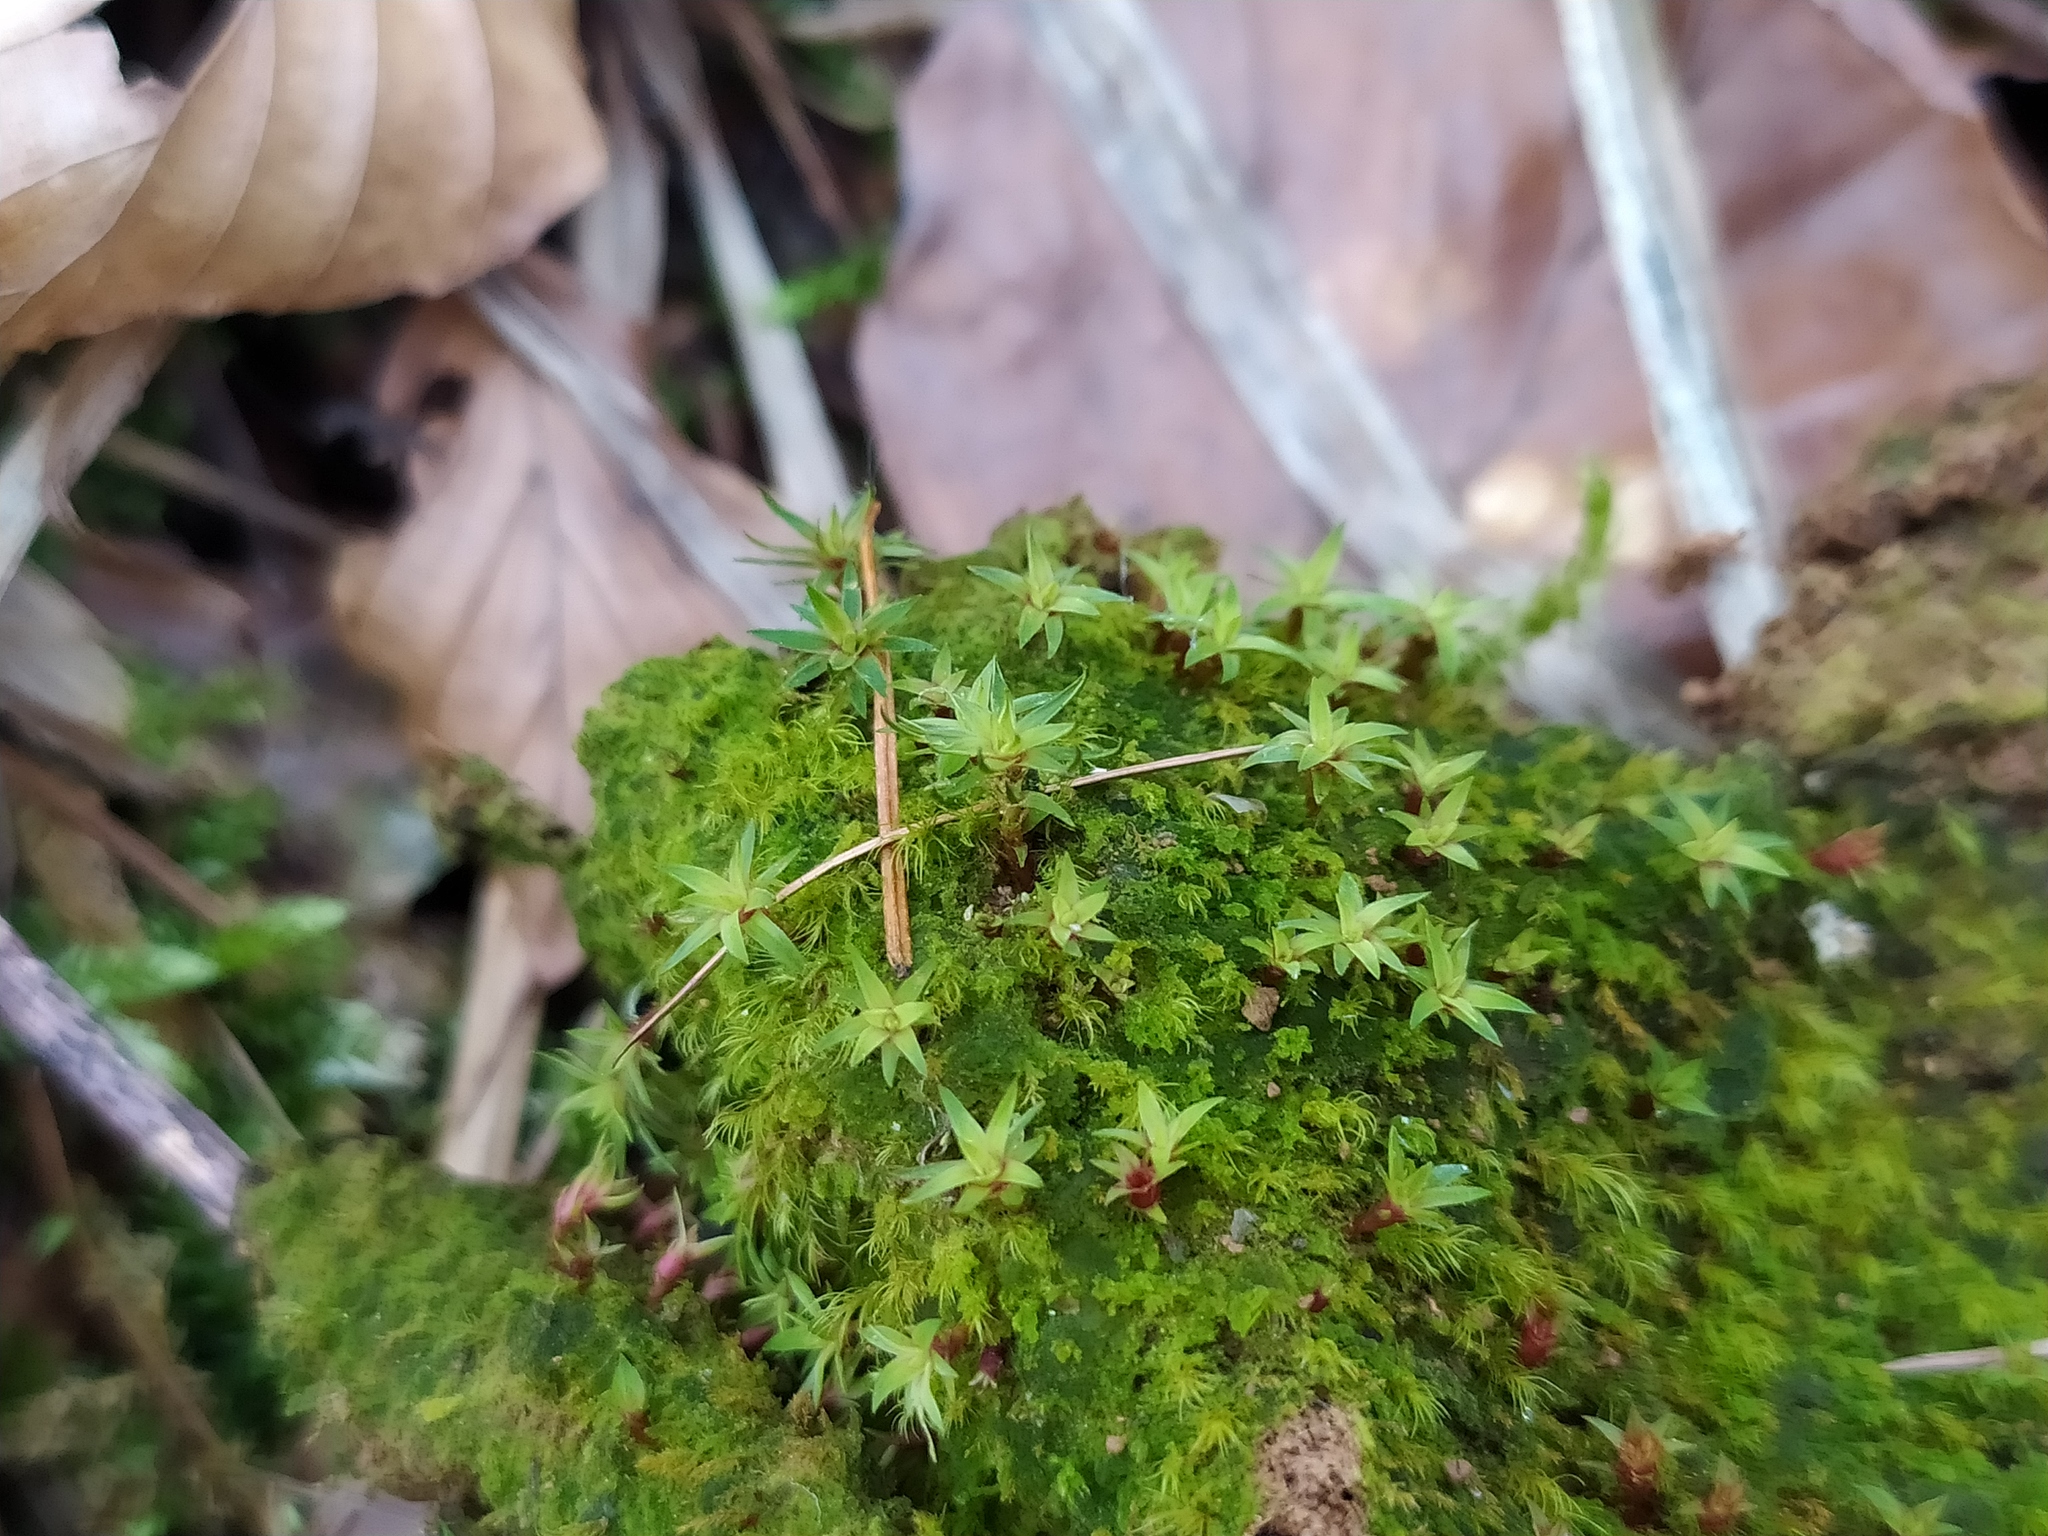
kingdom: Plantae
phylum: Bryophyta
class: Polytrichopsida
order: Polytrichales
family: Polytrichaceae
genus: Pogonatum
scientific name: Pogonatum aloides
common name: Aloe haircap
